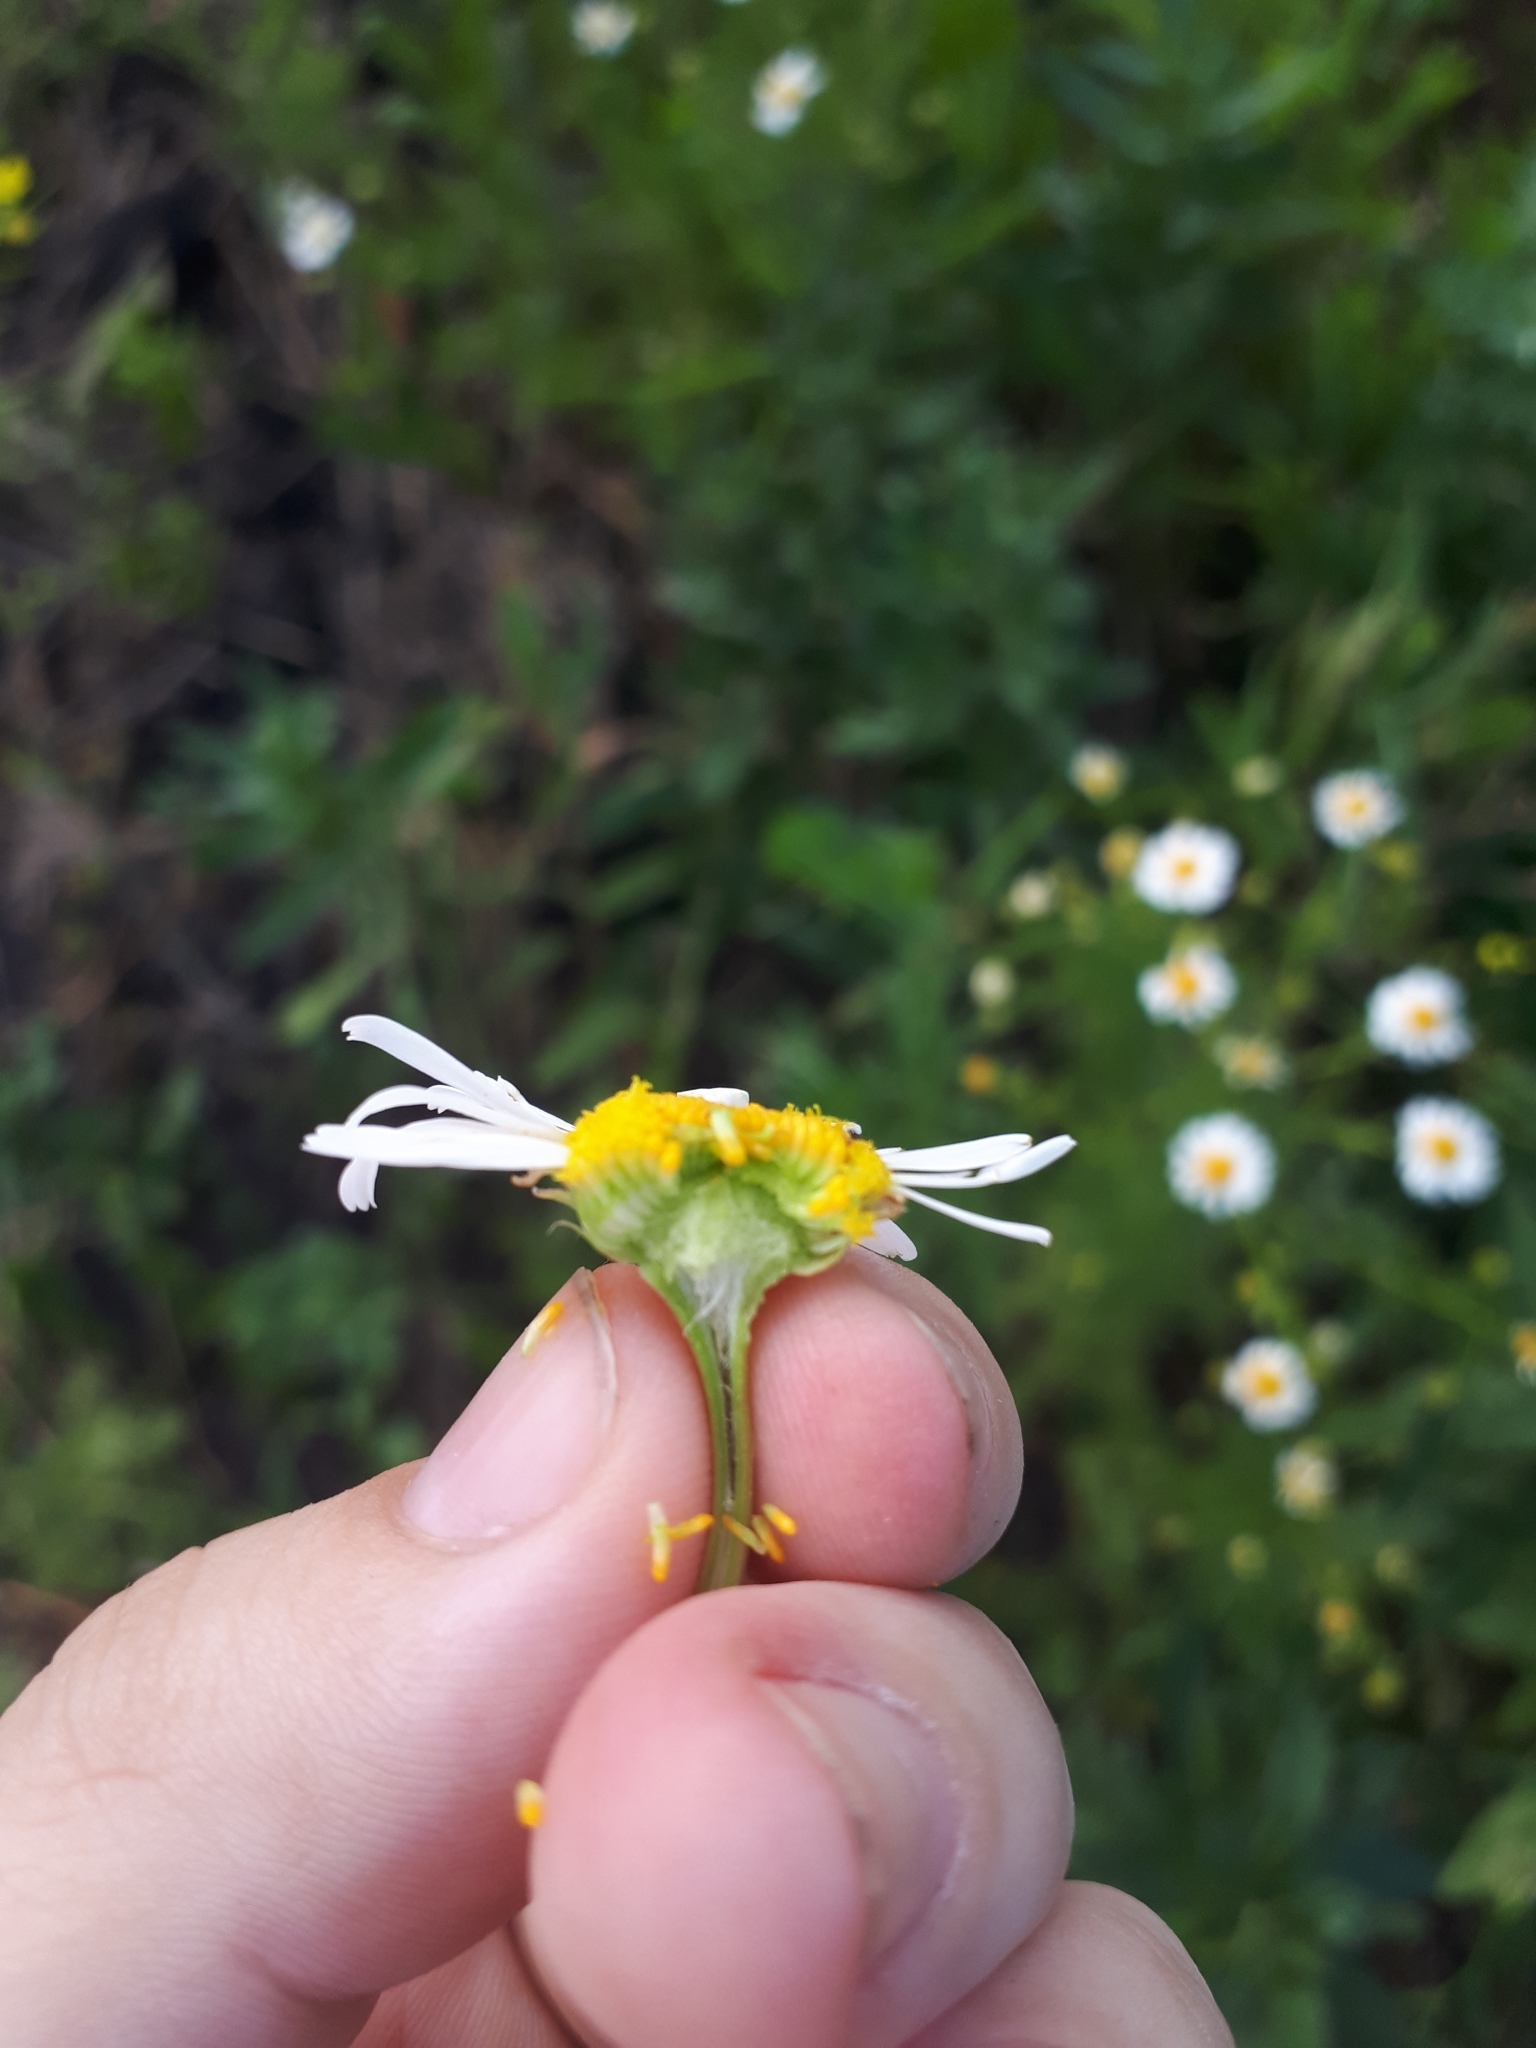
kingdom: Plantae
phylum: Tracheophyta
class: Magnoliopsida
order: Asterales
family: Asteraceae
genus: Tripleurospermum
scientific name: Tripleurospermum inodorum
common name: Scentless mayweed
